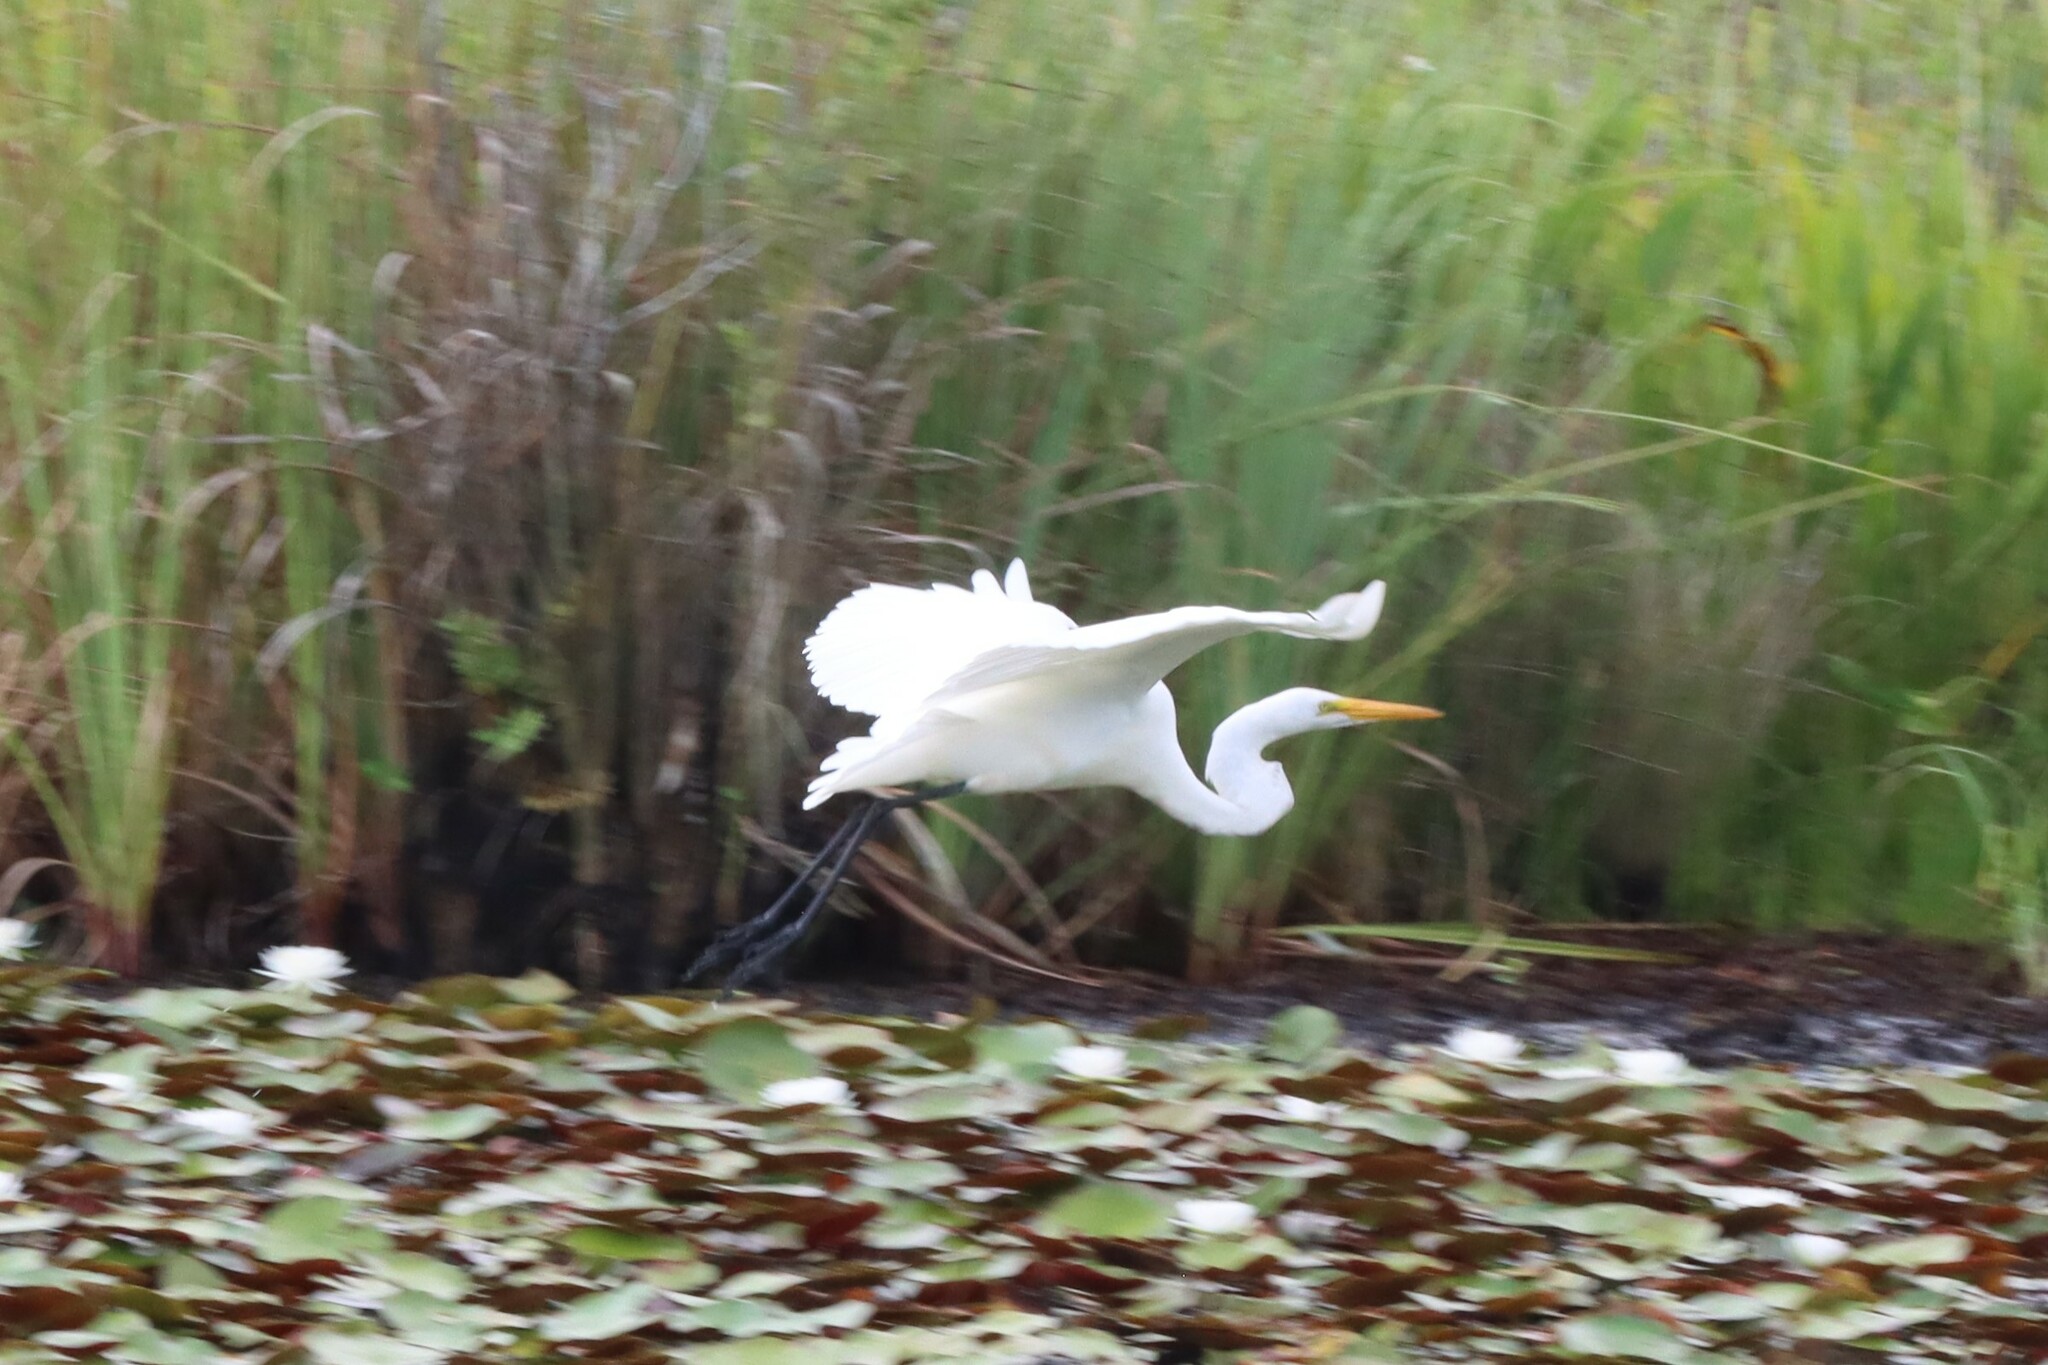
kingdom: Animalia
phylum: Chordata
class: Aves
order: Pelecaniformes
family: Ardeidae
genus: Ardea
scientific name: Ardea alba
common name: Great egret
